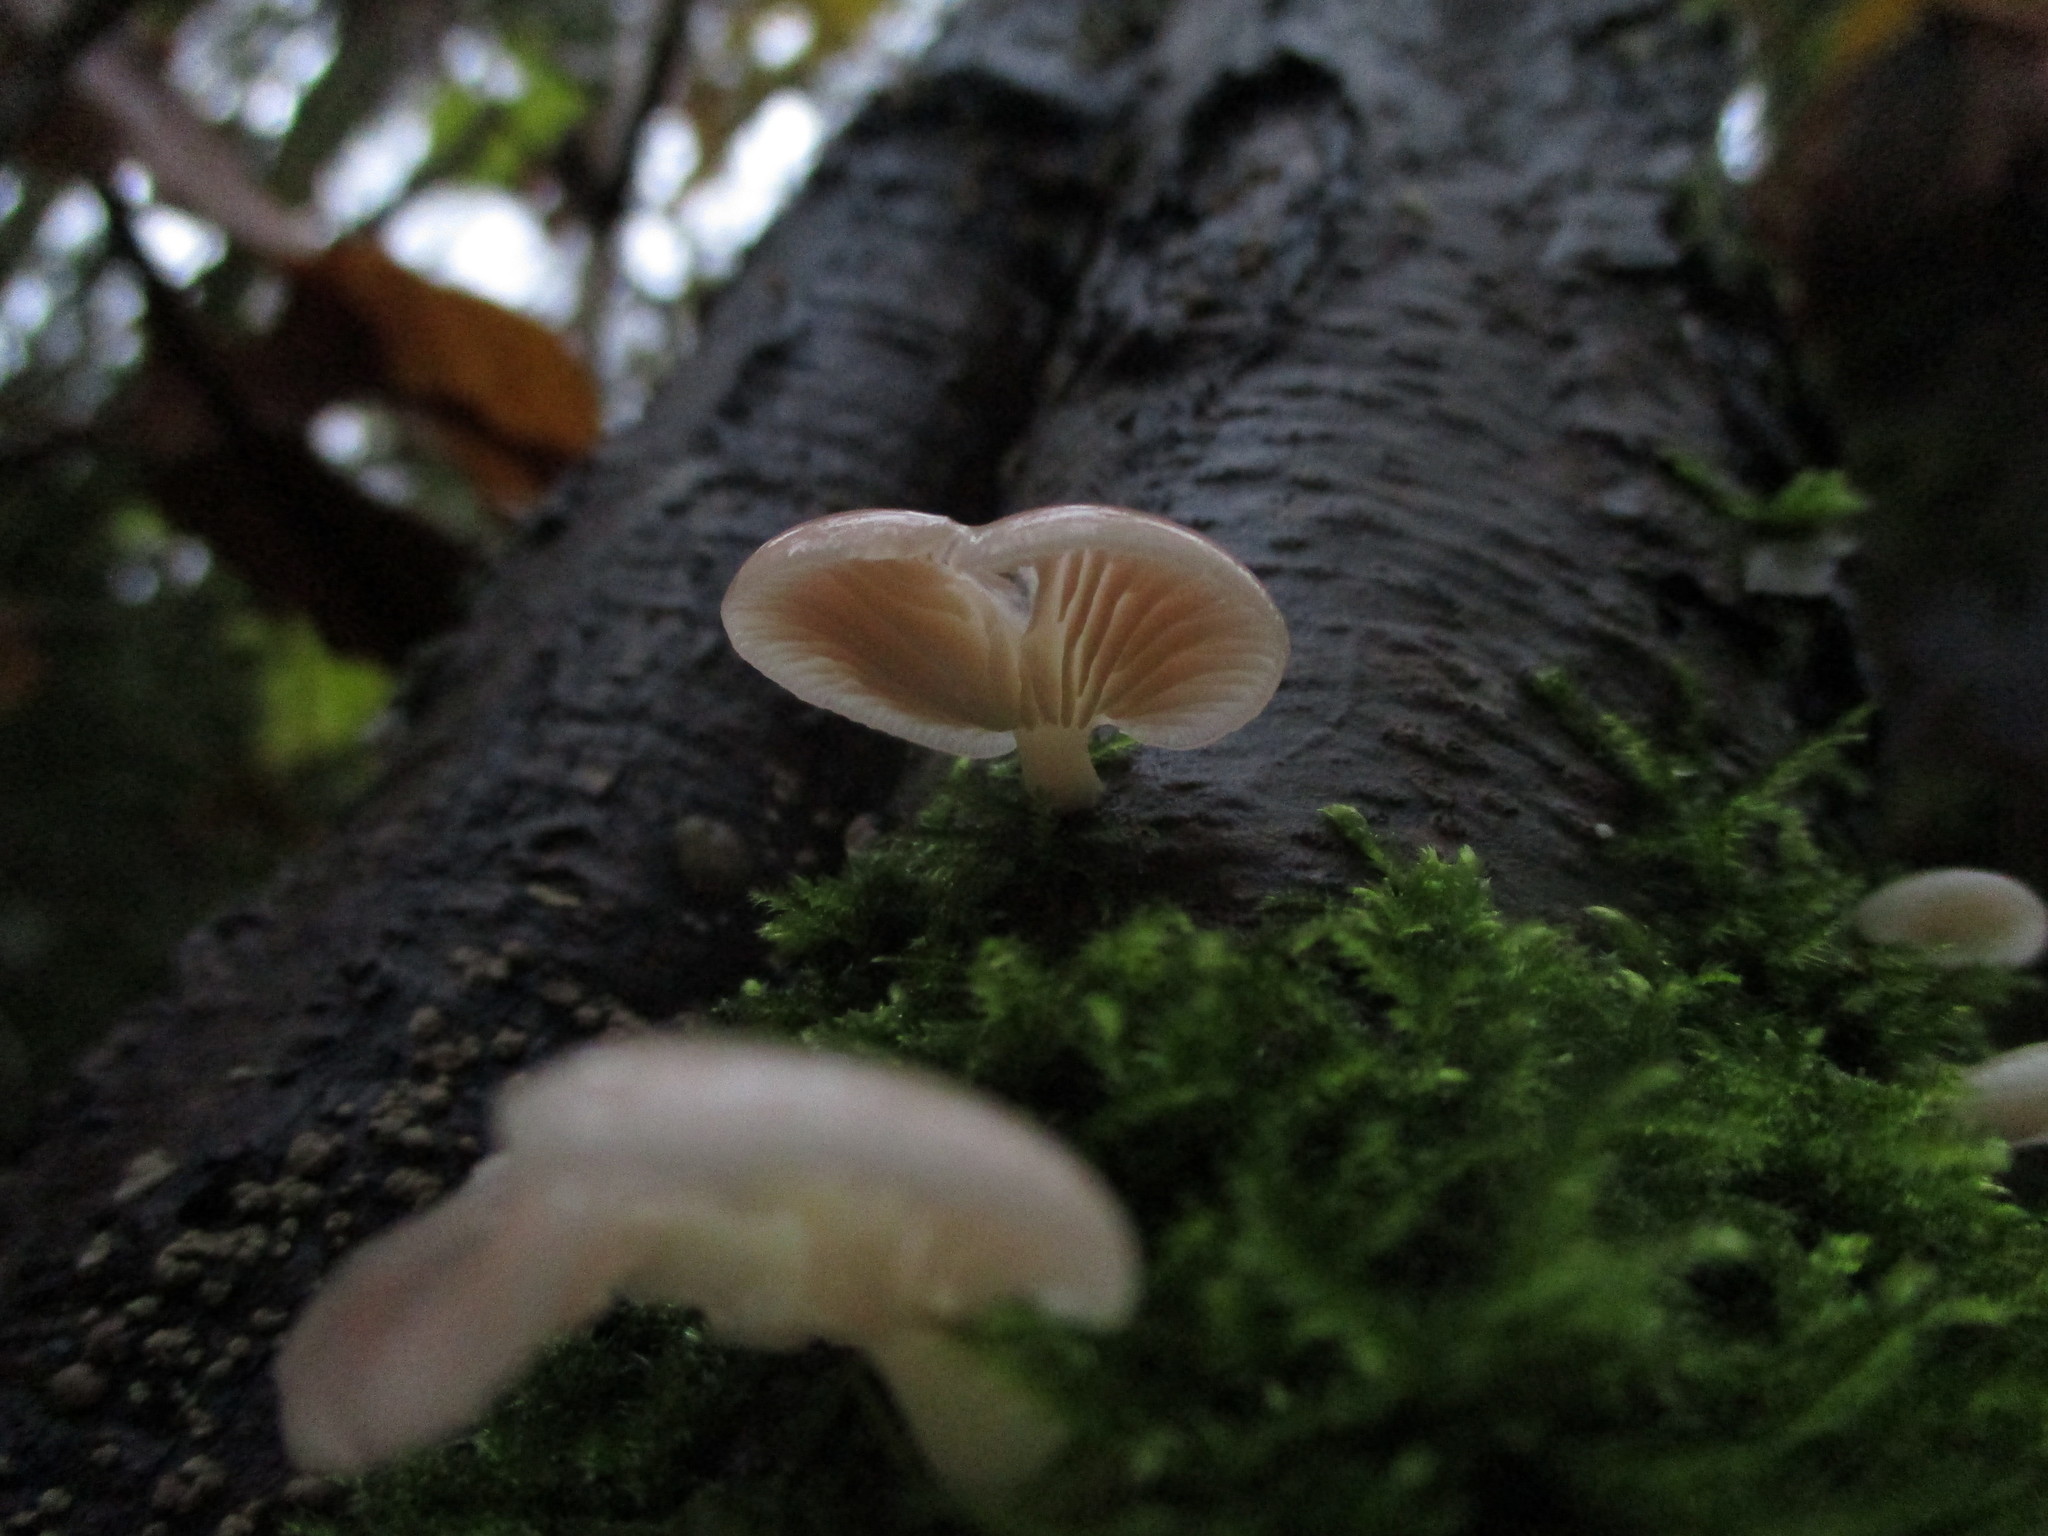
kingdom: Fungi
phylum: Basidiomycota
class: Agaricomycetes
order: Agaricales
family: Mycenaceae
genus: Panellus
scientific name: Panellus longinquus
